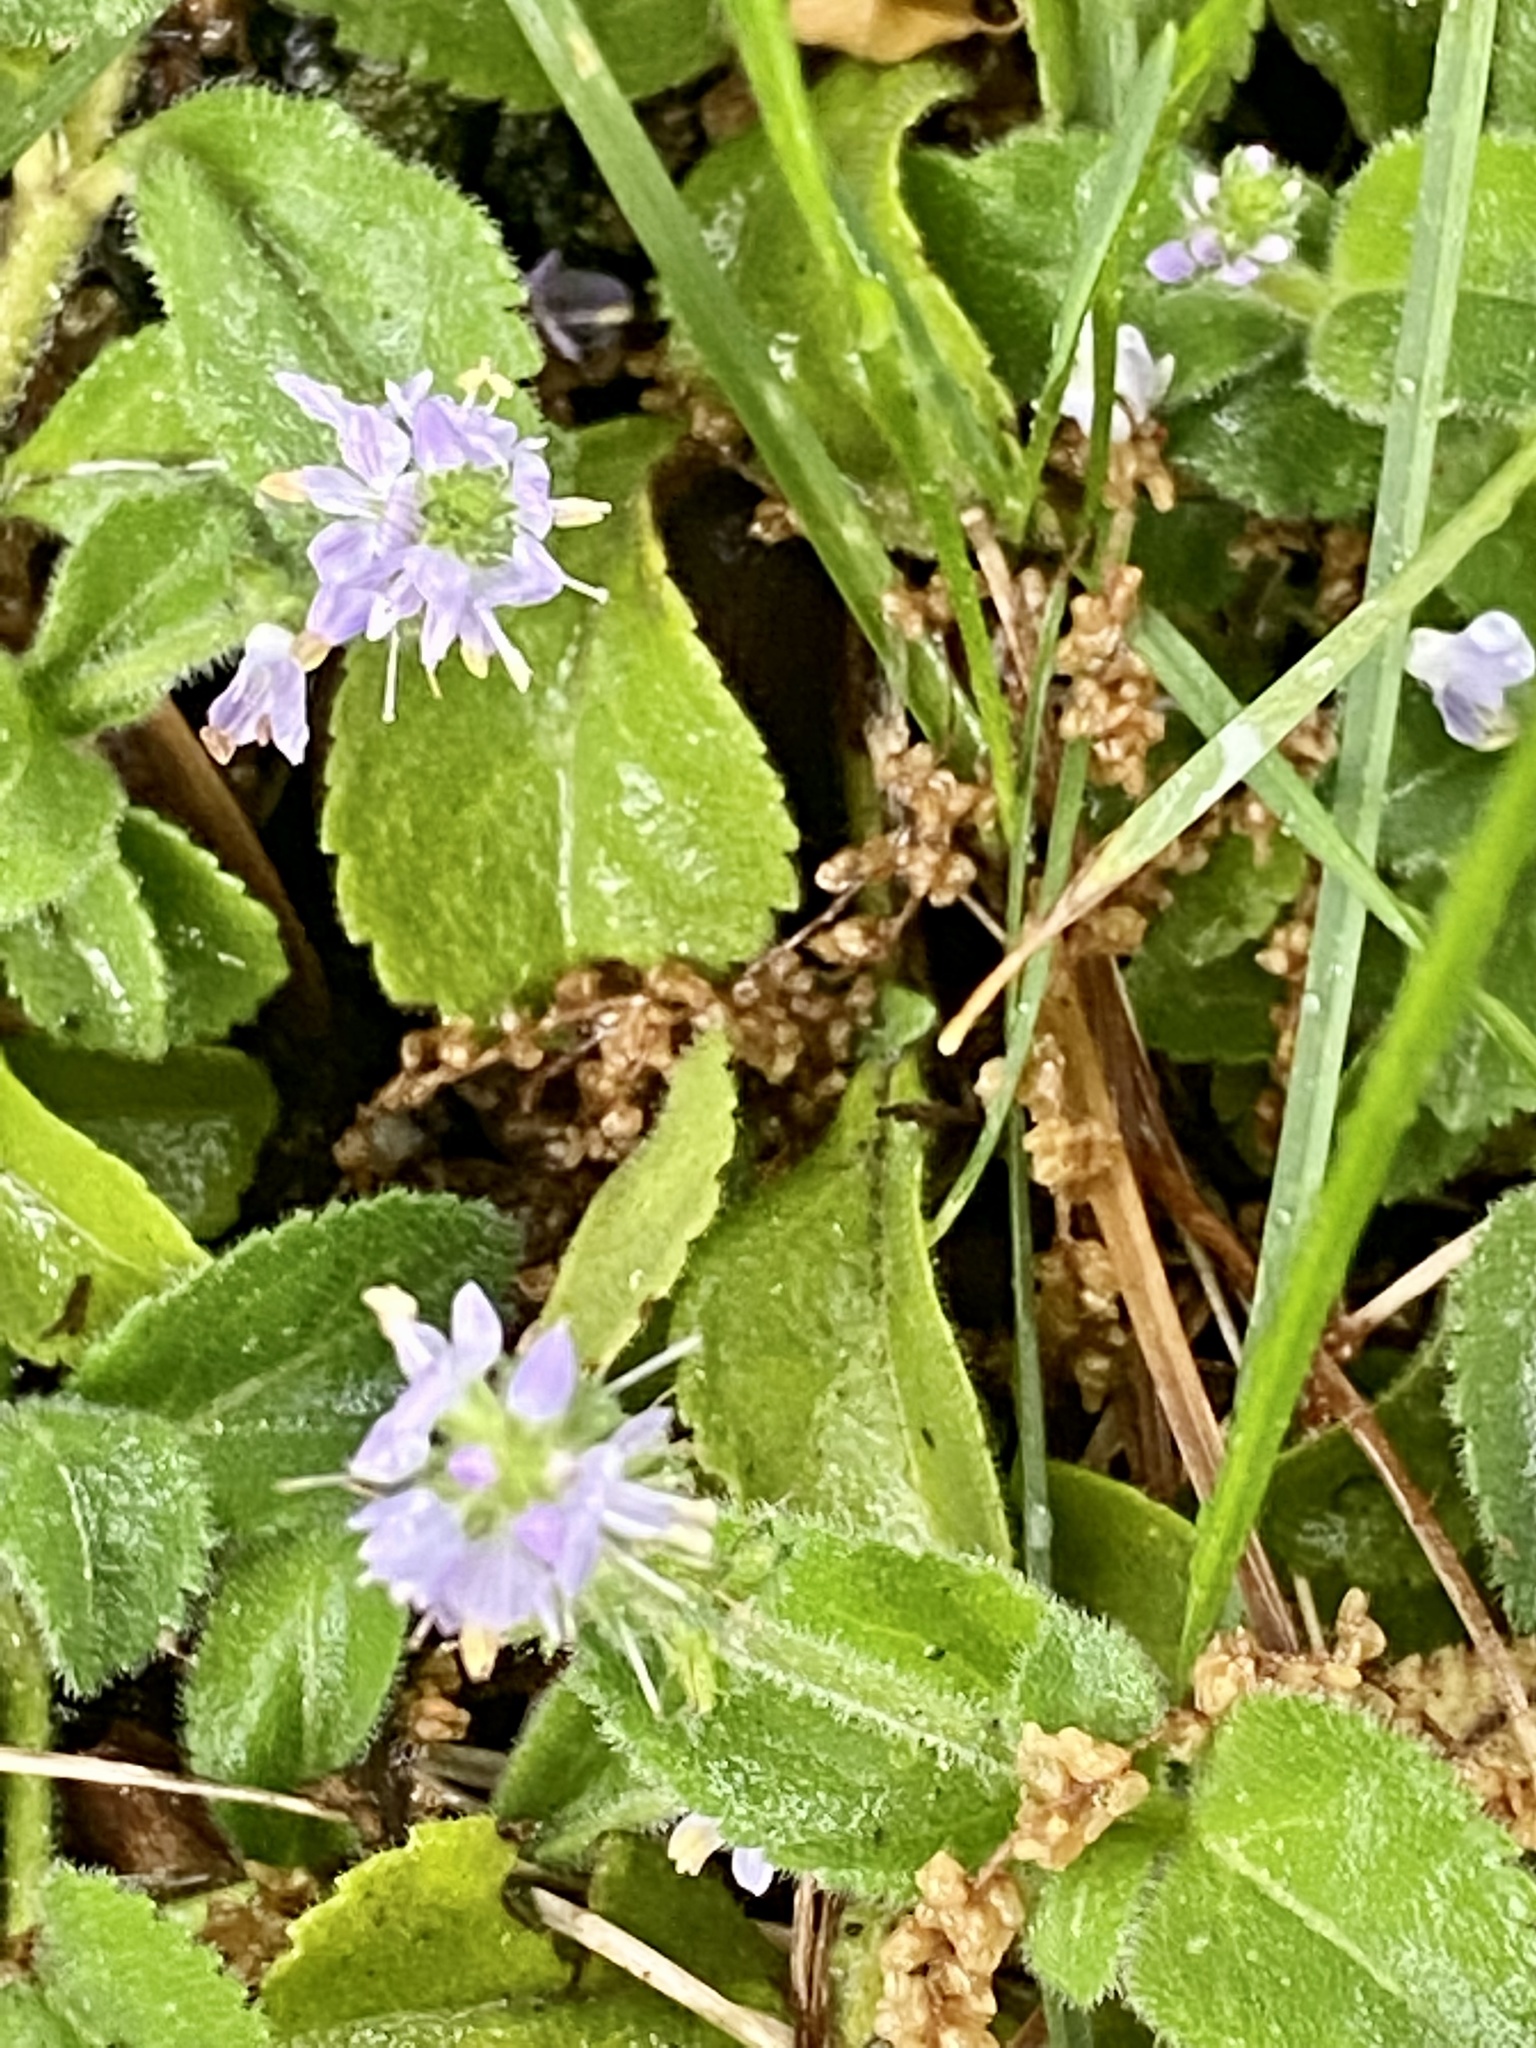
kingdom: Plantae
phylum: Tracheophyta
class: Magnoliopsida
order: Lamiales
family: Plantaginaceae
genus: Veronica
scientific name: Veronica officinalis
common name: Common speedwell
